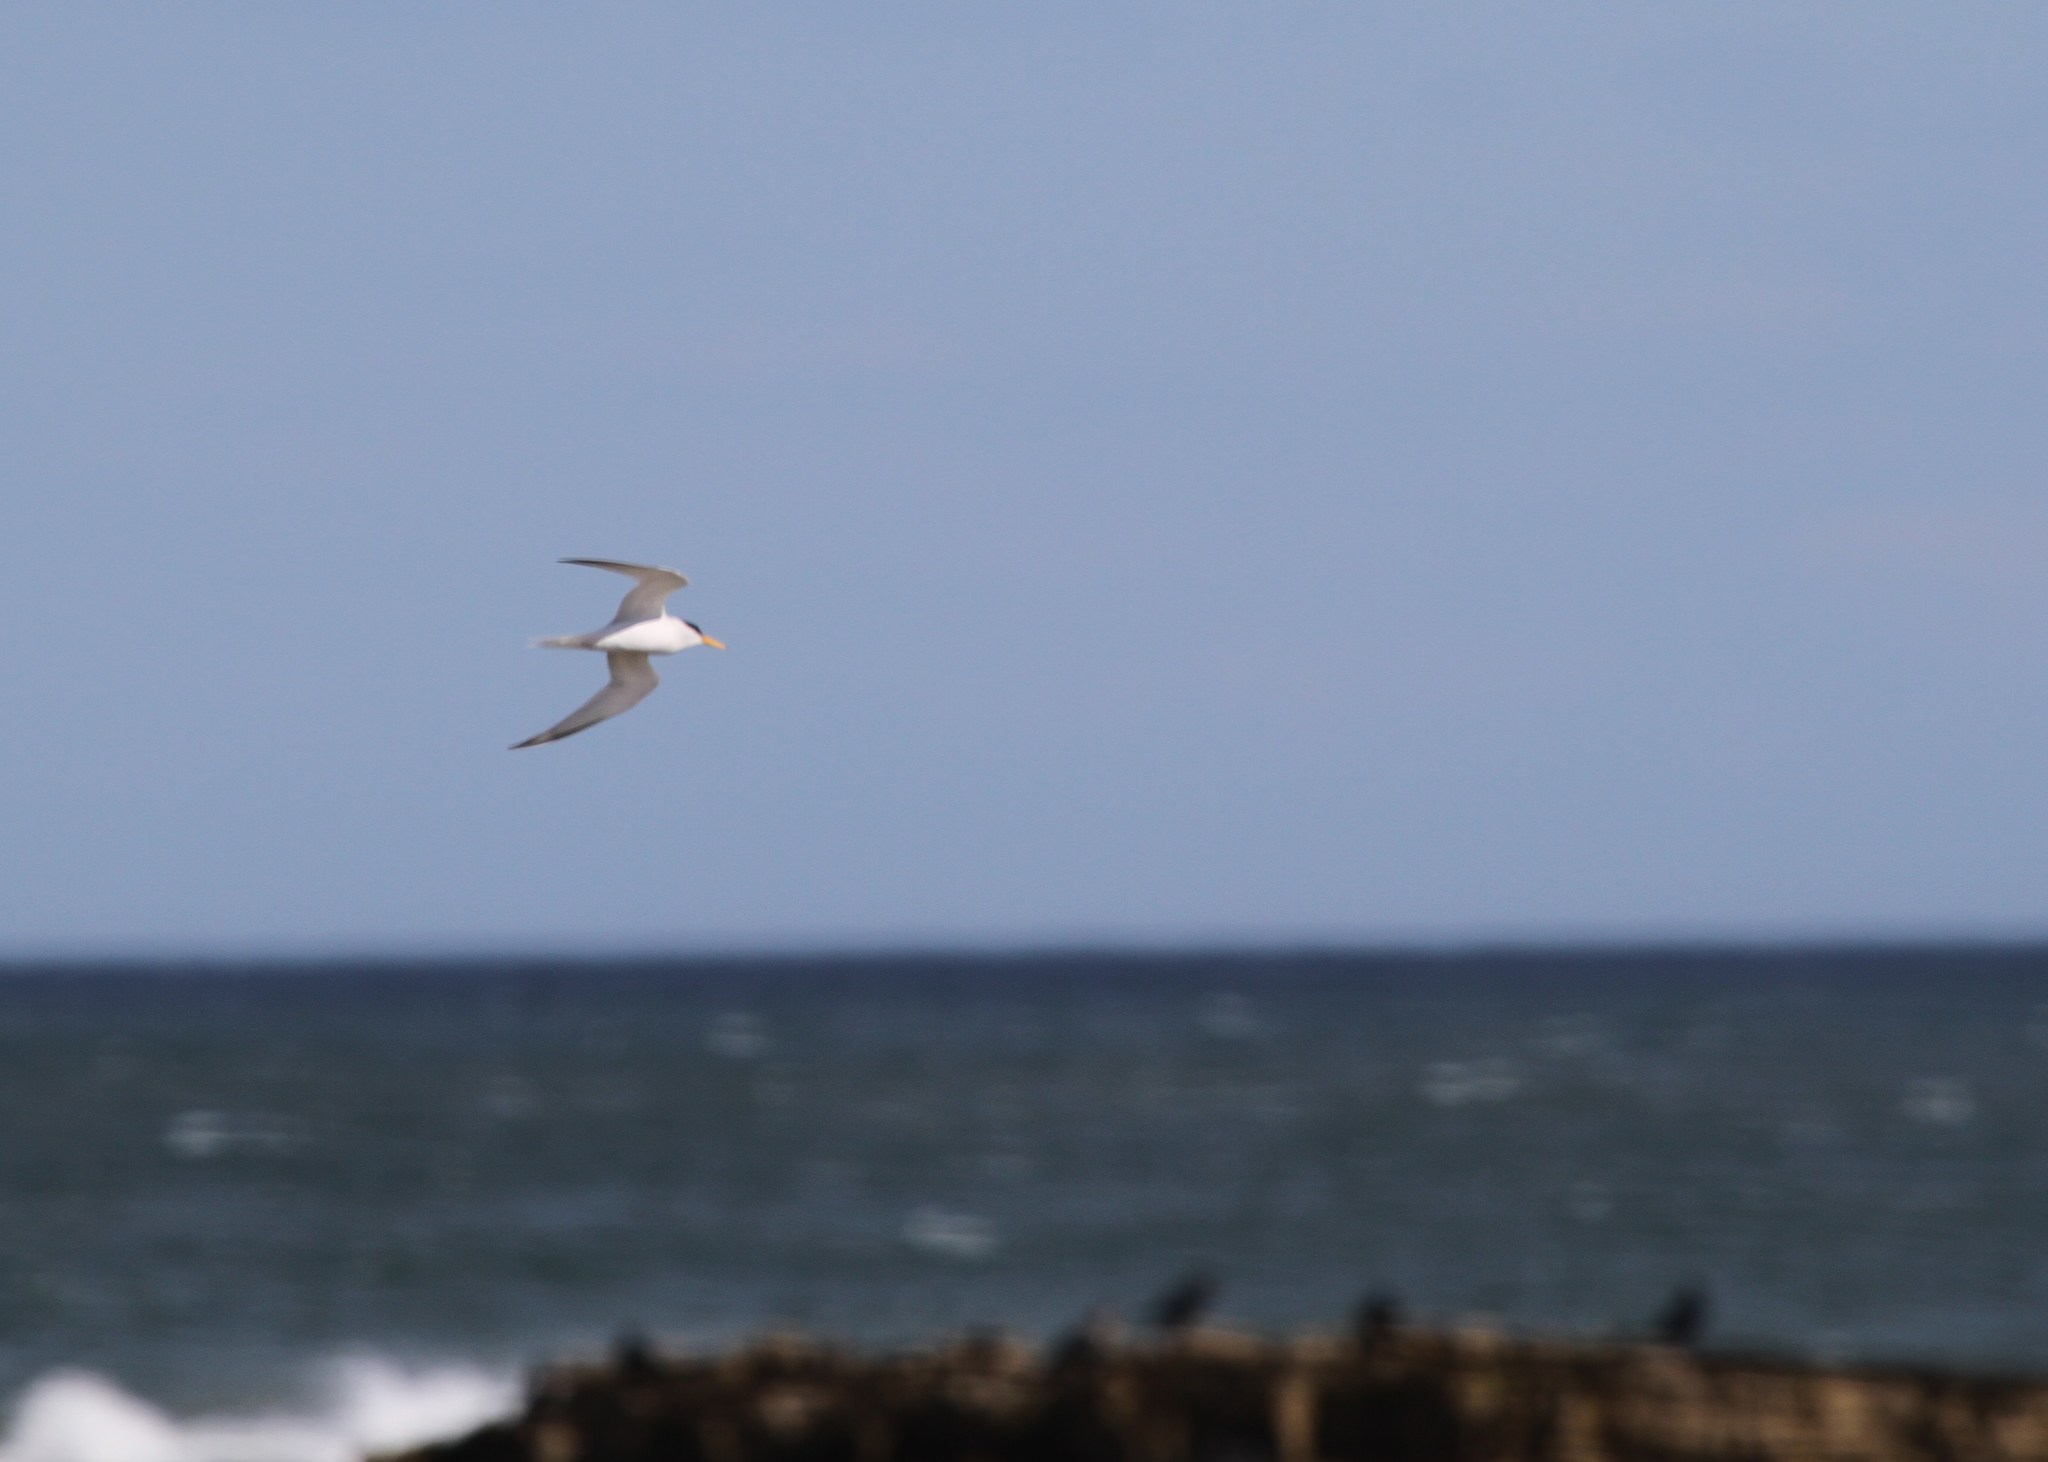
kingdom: Animalia
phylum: Chordata
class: Aves
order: Charadriiformes
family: Laridae
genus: Sternula
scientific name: Sternula albifrons
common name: Little tern
